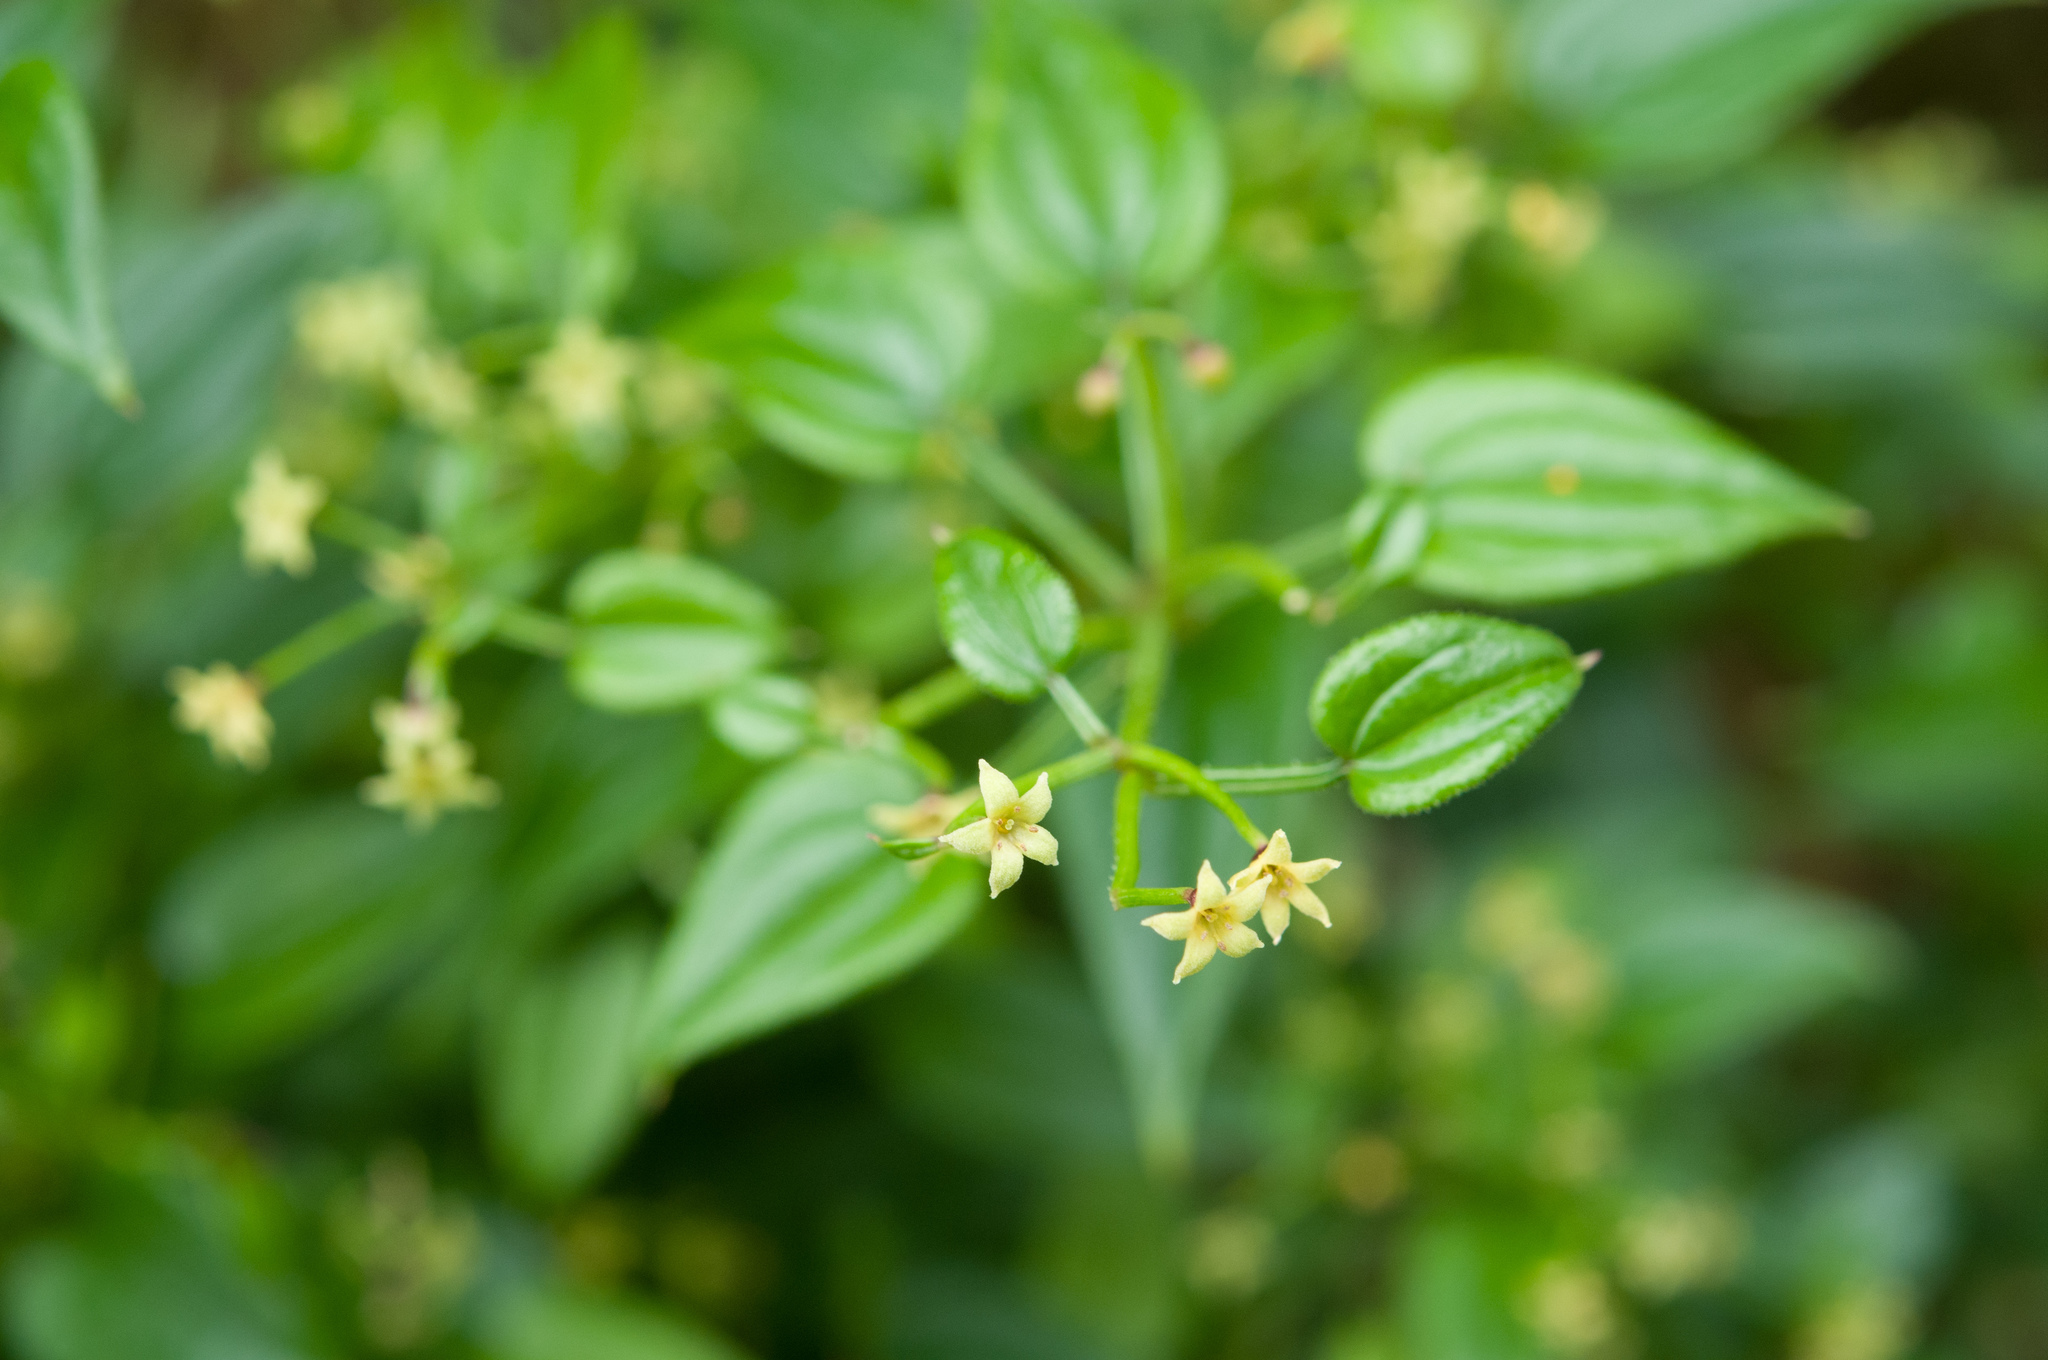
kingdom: Plantae
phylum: Tracheophyta
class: Magnoliopsida
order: Gentianales
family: Rubiaceae
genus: Rubia
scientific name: Rubia argyi
